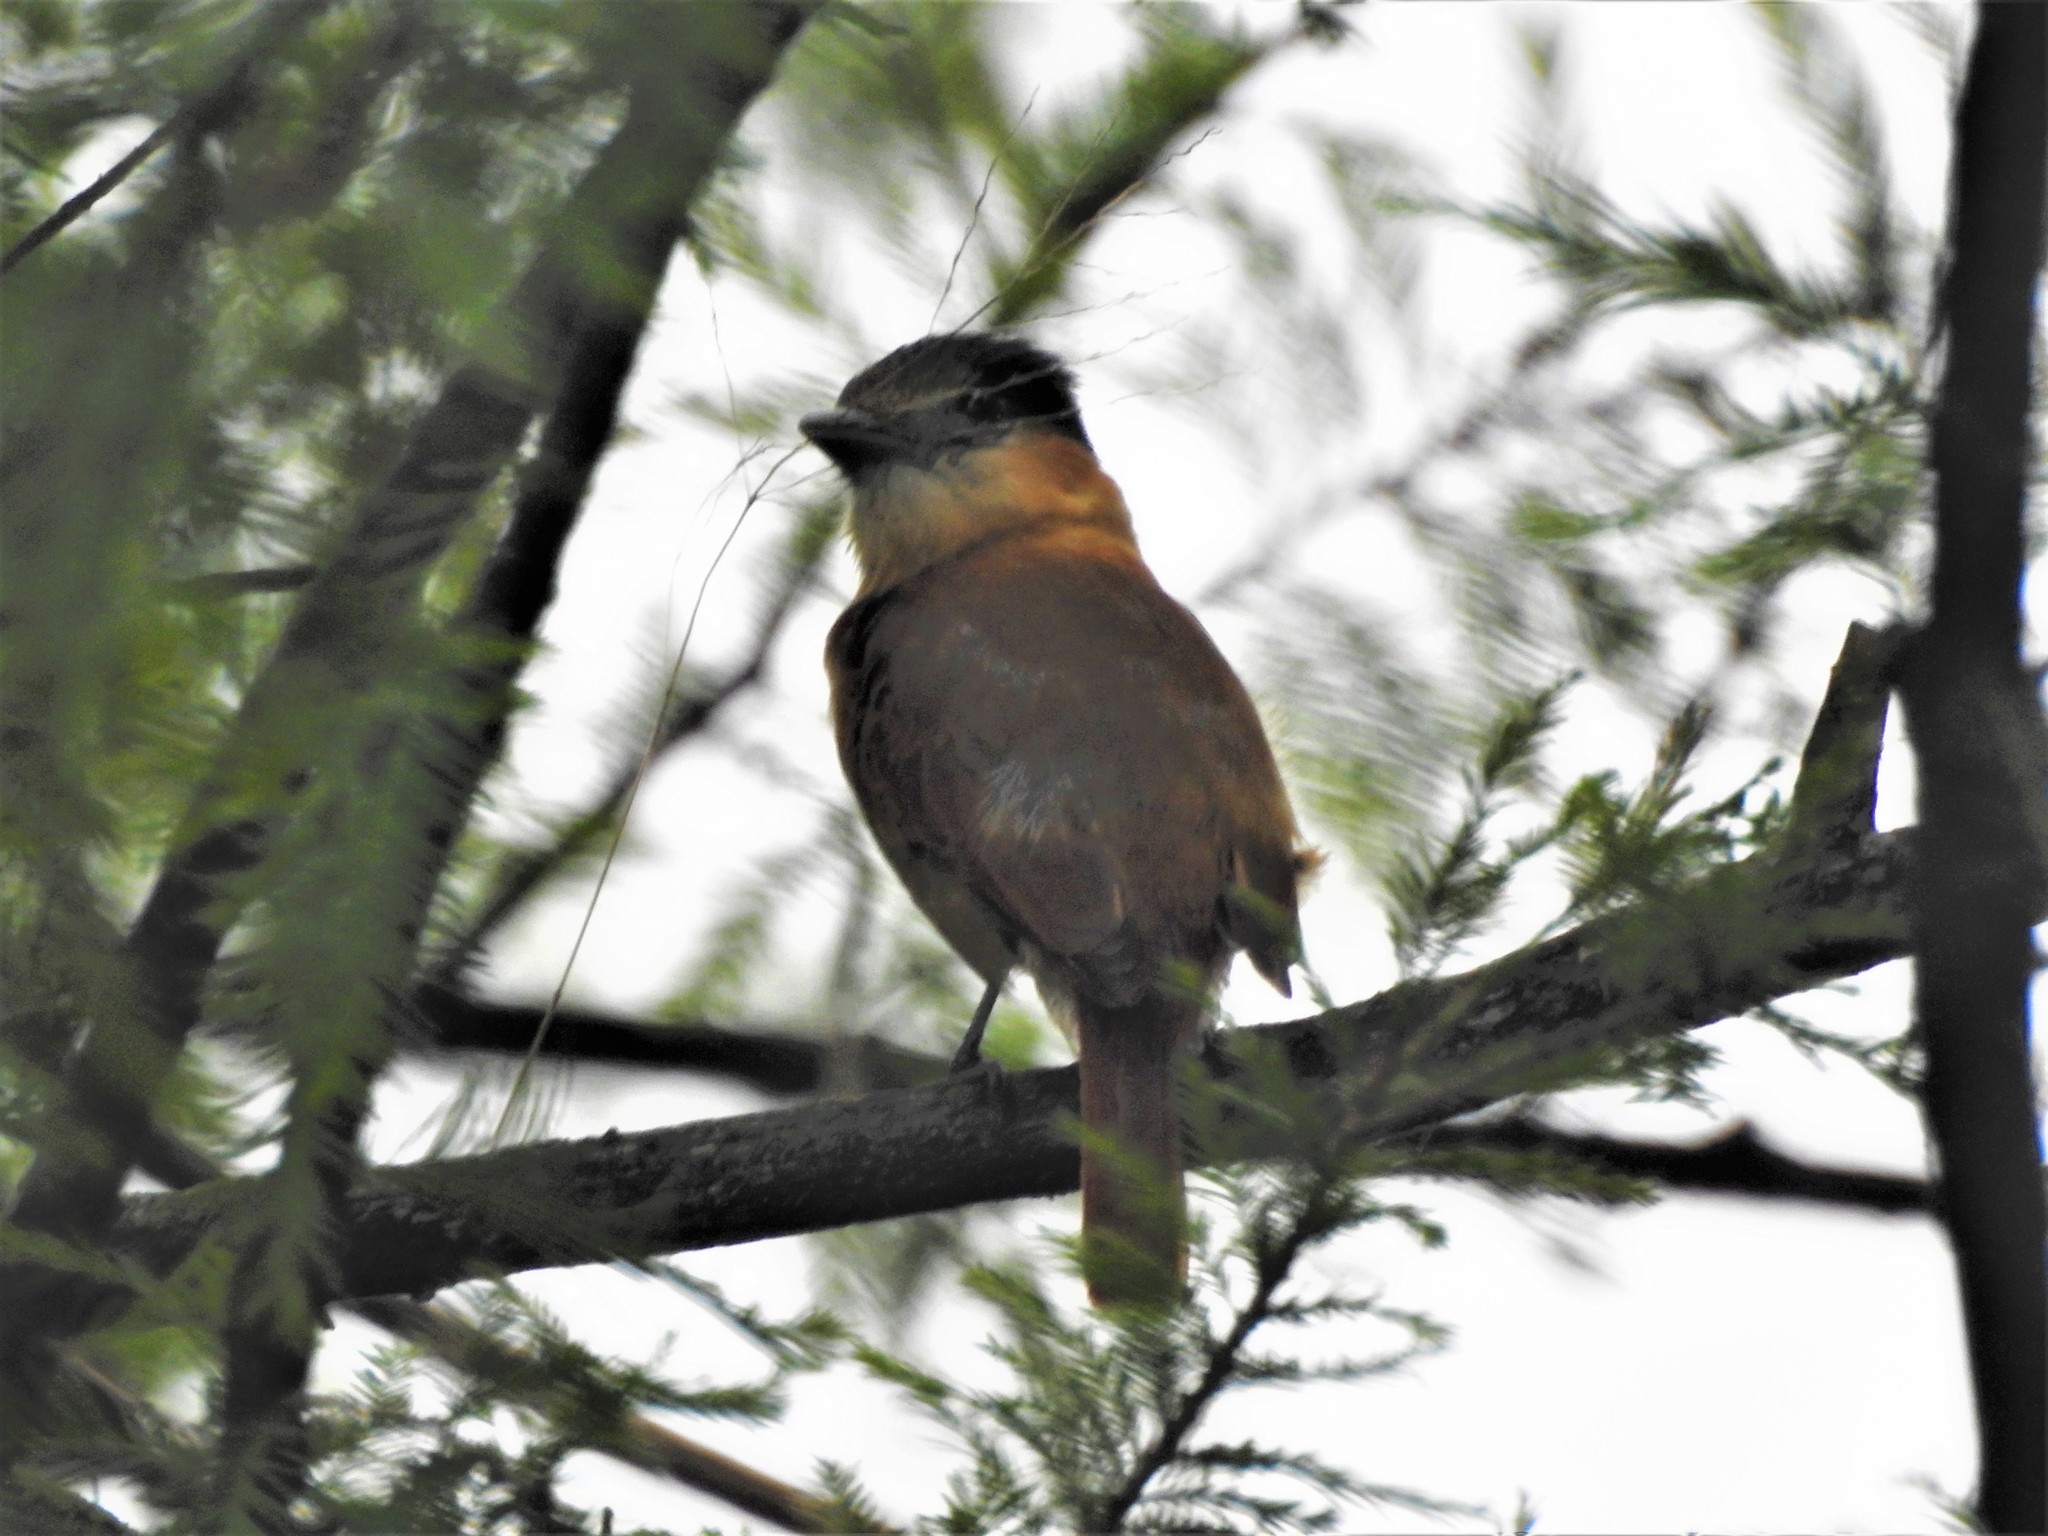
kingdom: Animalia
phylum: Chordata
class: Aves
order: Passeriformes
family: Cotingidae
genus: Pachyramphus
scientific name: Pachyramphus aglaiae
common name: Rose-throated becard
